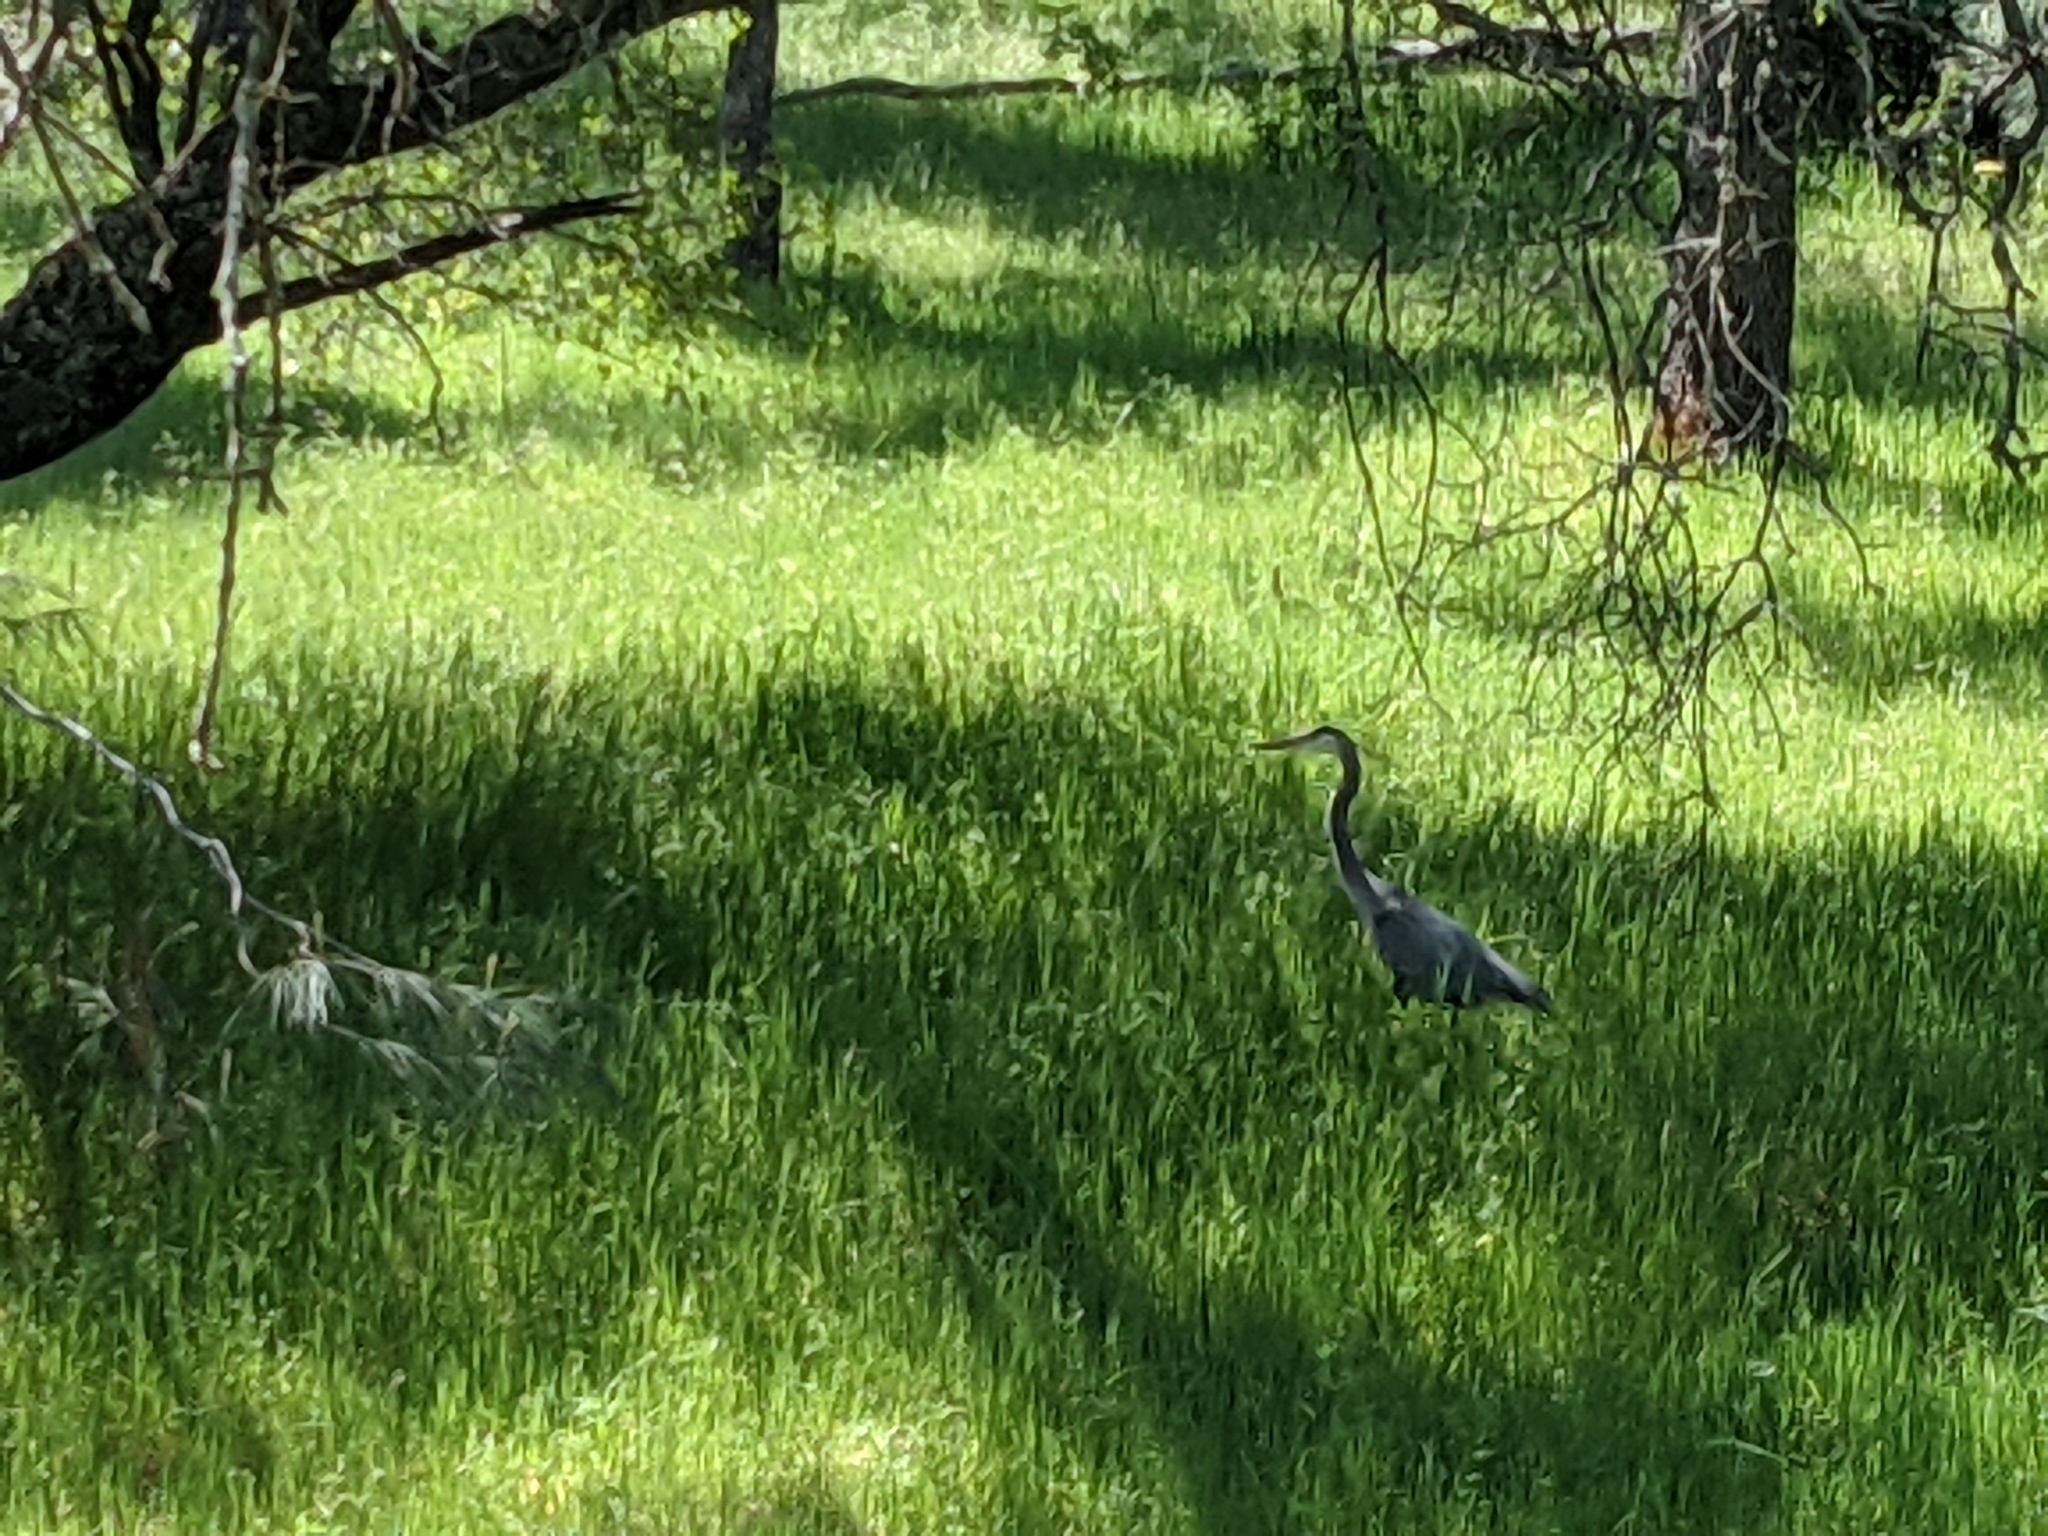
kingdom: Animalia
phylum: Chordata
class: Aves
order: Pelecaniformes
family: Ardeidae
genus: Ardea
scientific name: Ardea herodias
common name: Great blue heron
